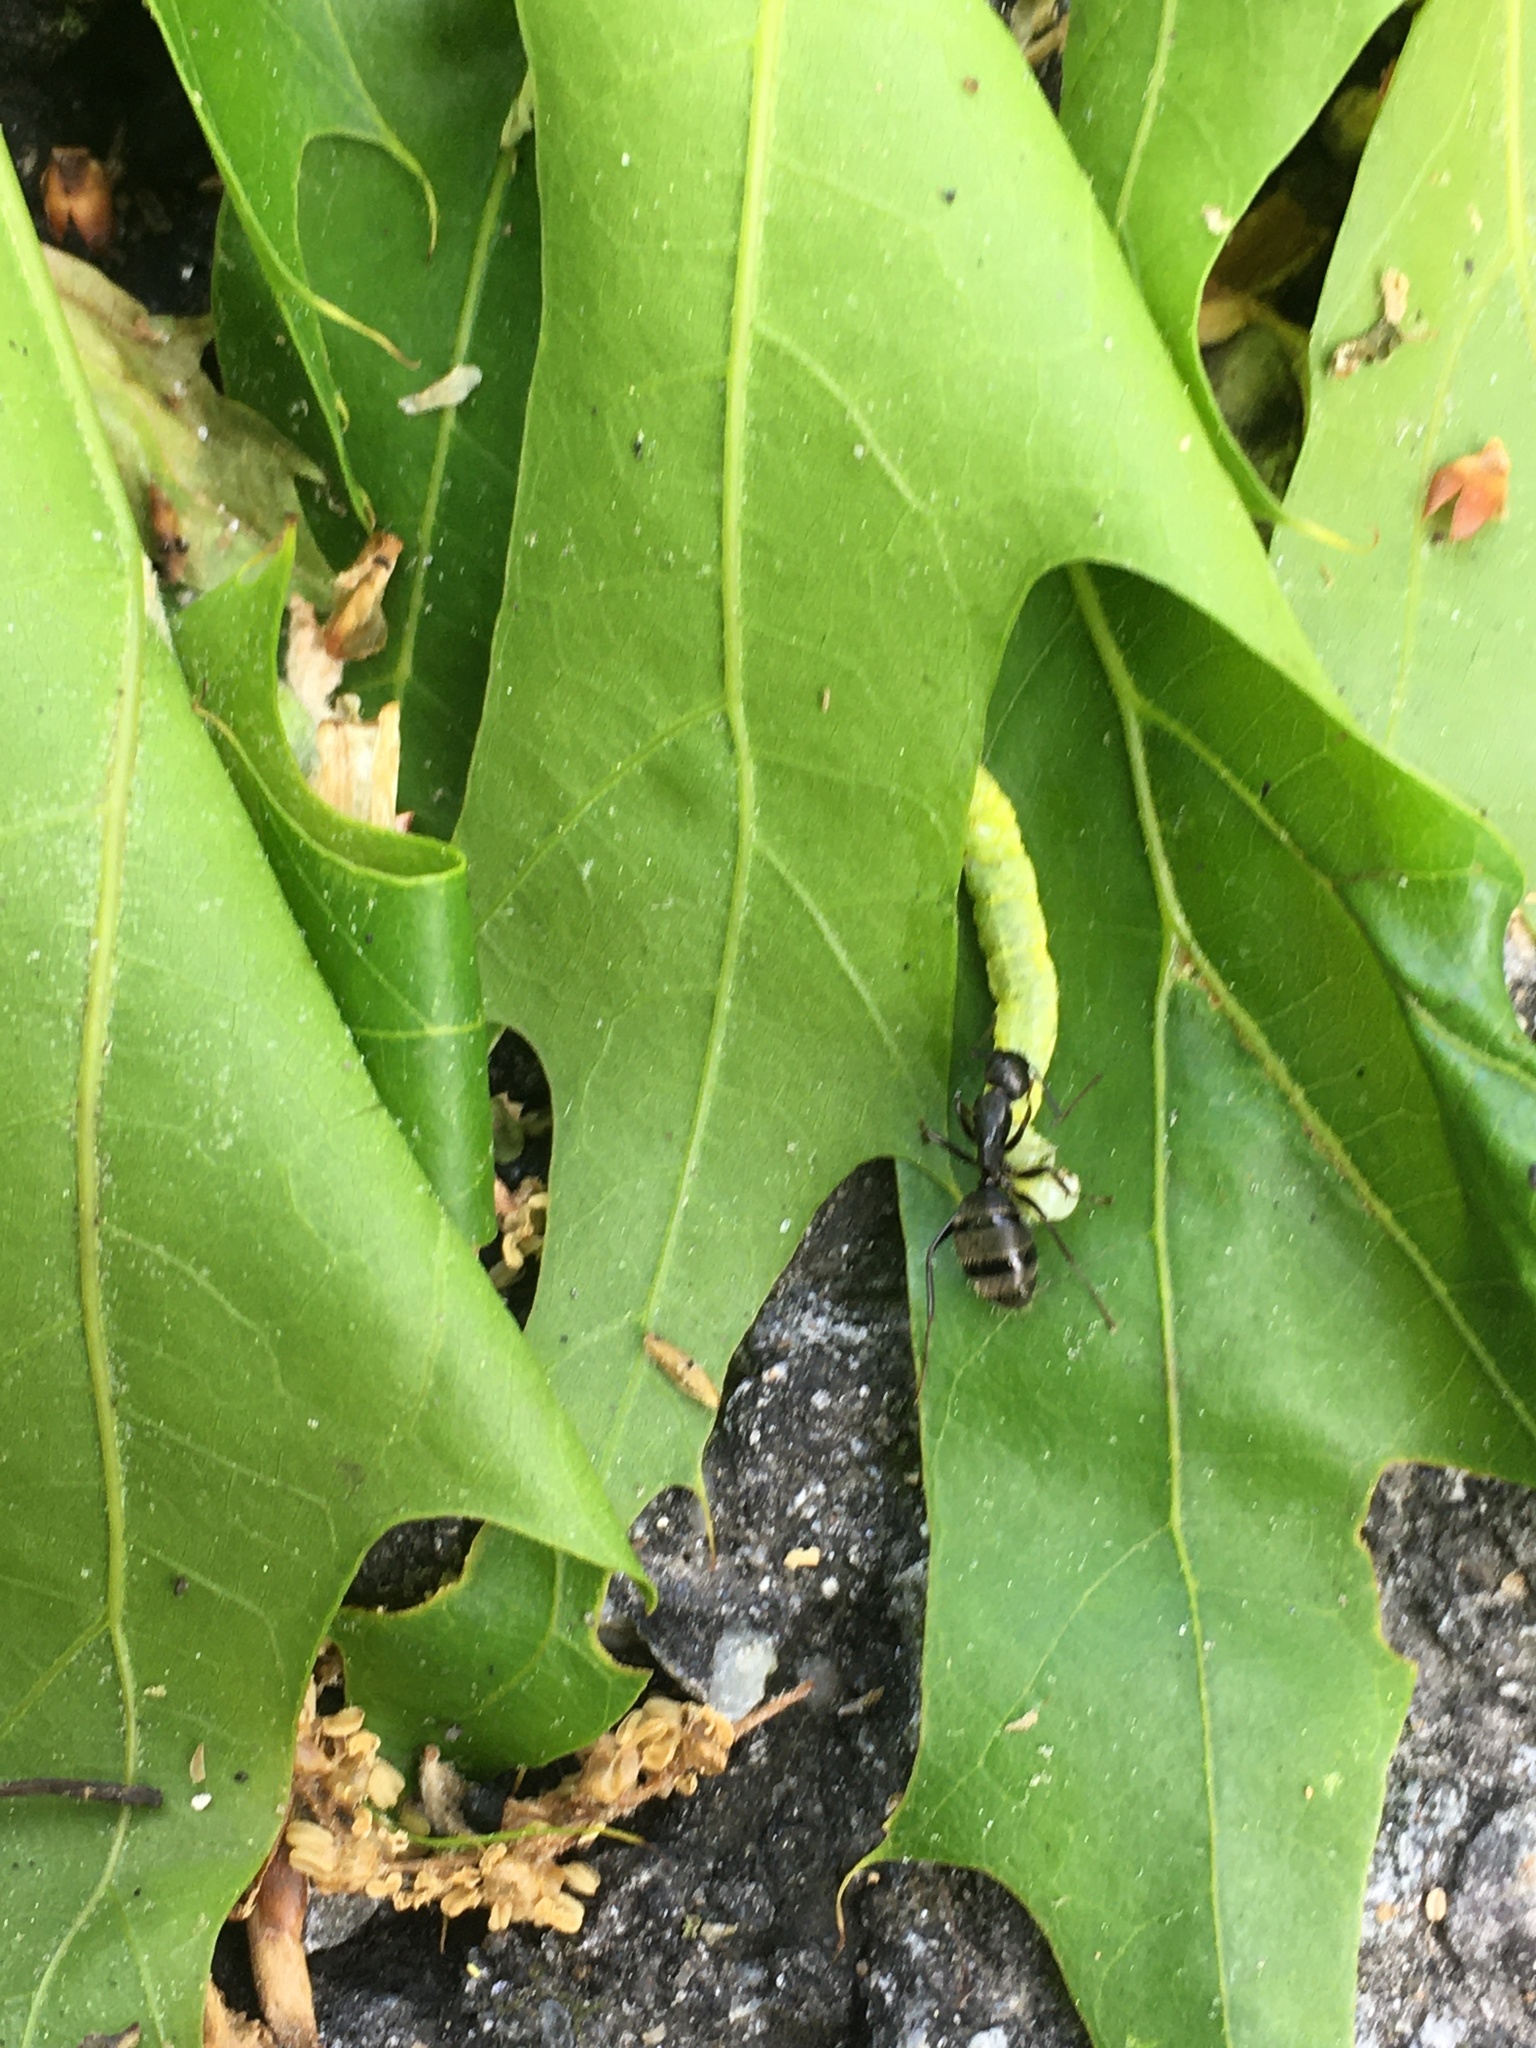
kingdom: Animalia
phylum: Arthropoda
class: Insecta
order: Hymenoptera
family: Formicidae
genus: Camponotus
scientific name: Camponotus pennsylvanicus
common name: Black carpenter ant
